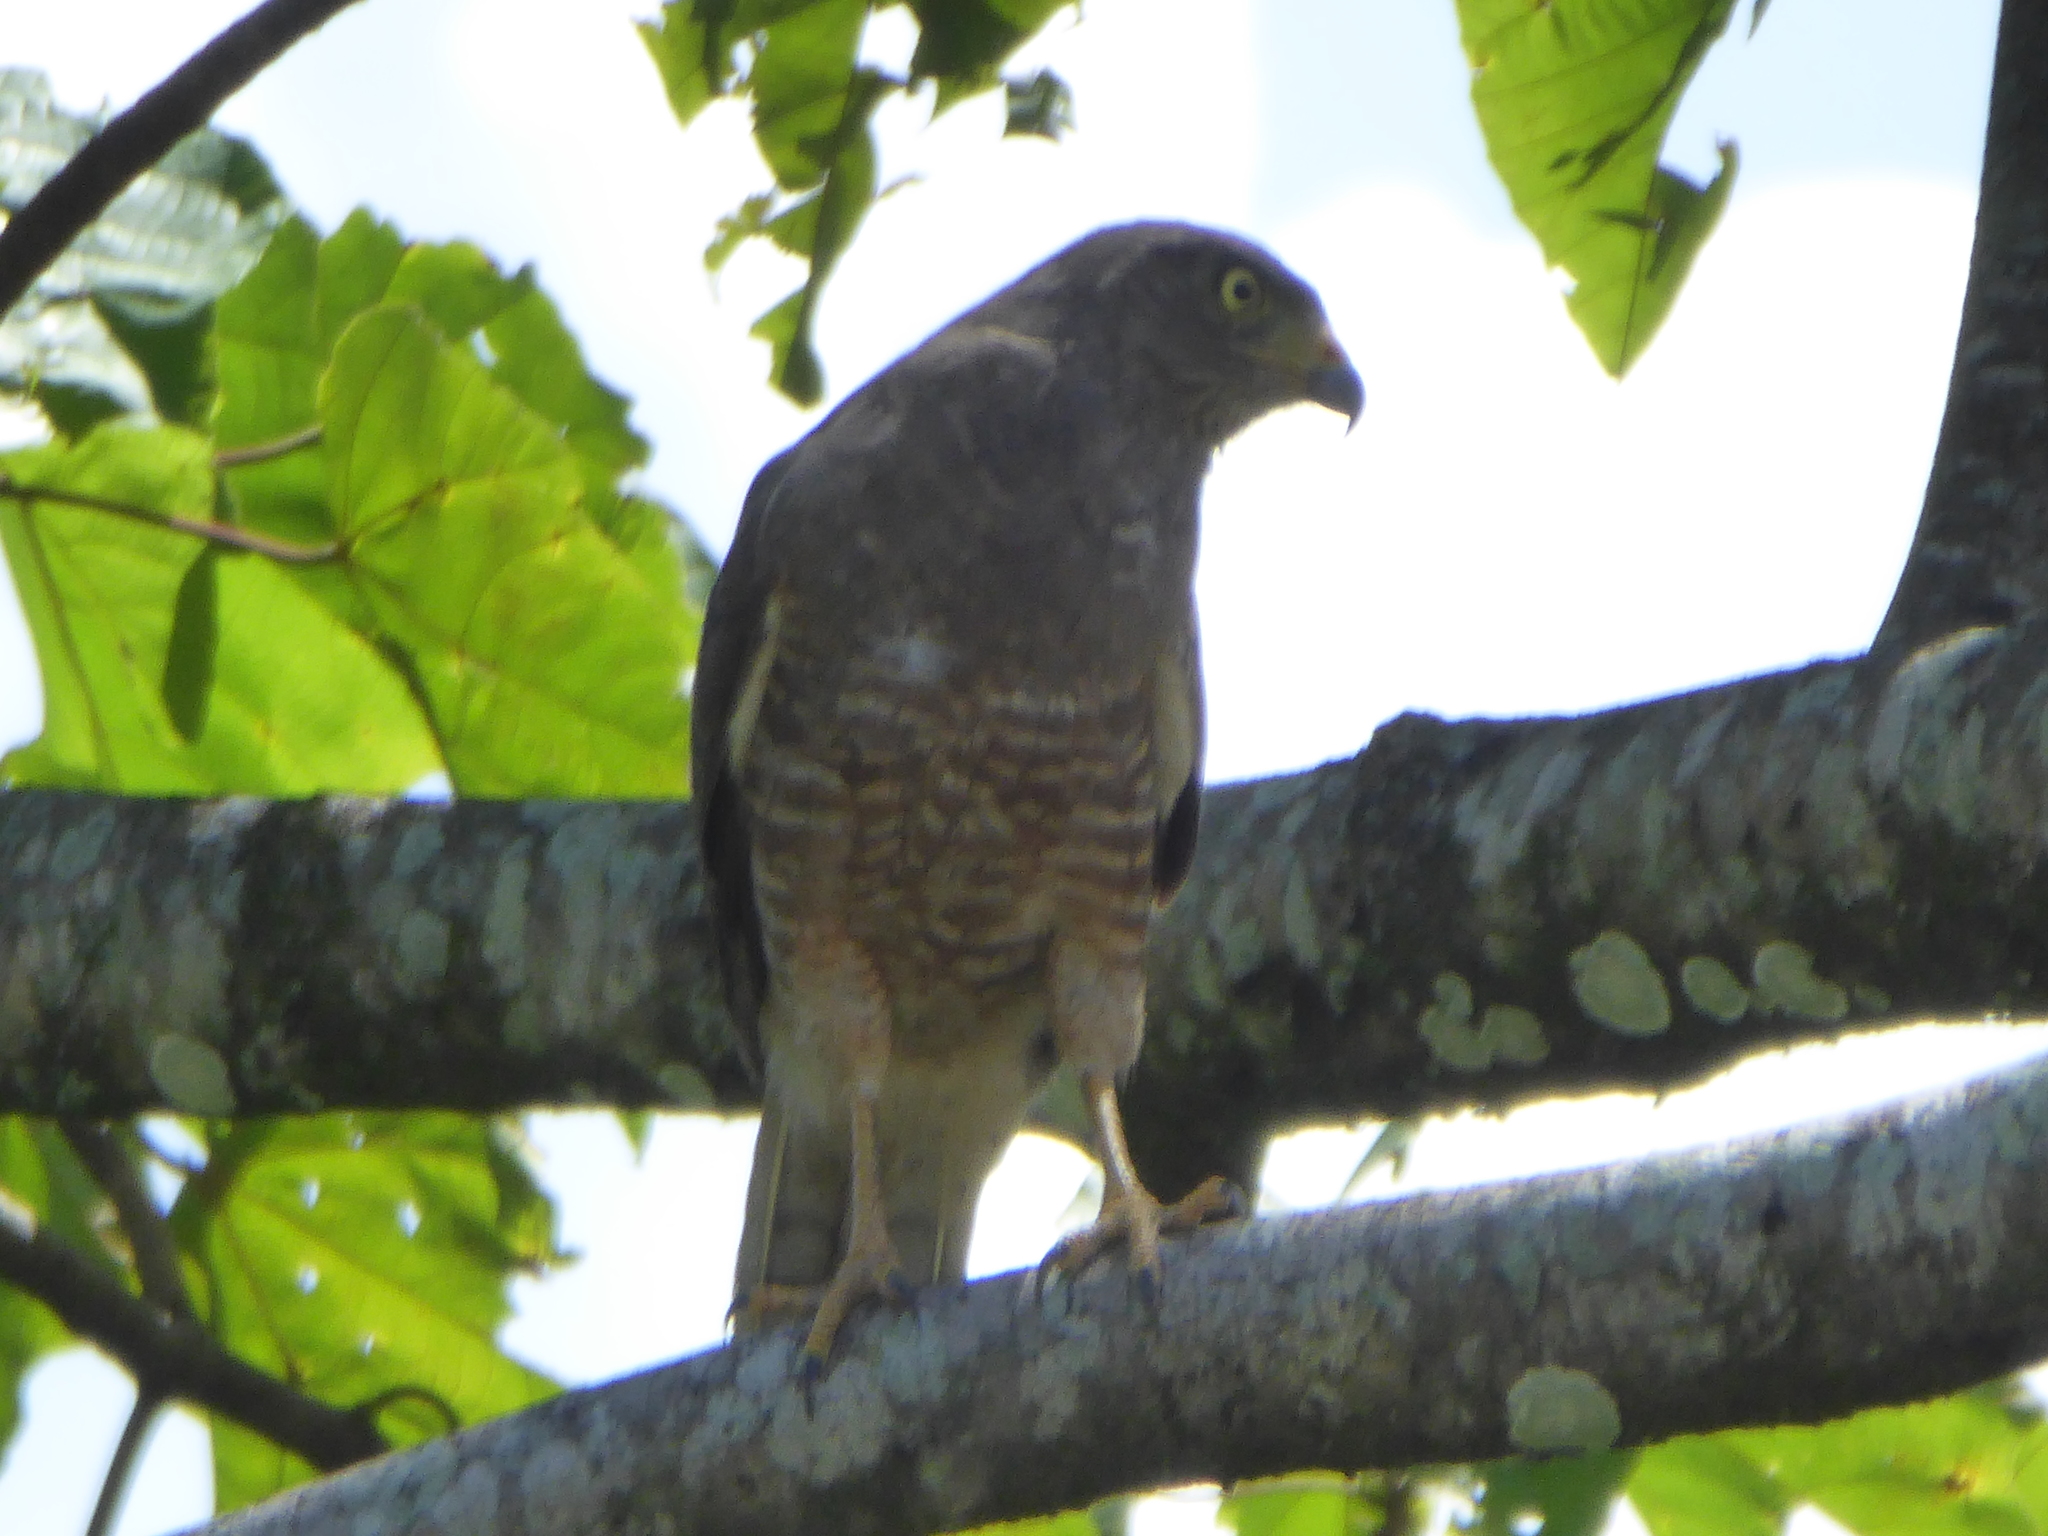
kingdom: Animalia
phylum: Chordata
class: Aves
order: Accipitriformes
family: Accipitridae
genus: Rupornis
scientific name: Rupornis magnirostris
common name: Roadside hawk
